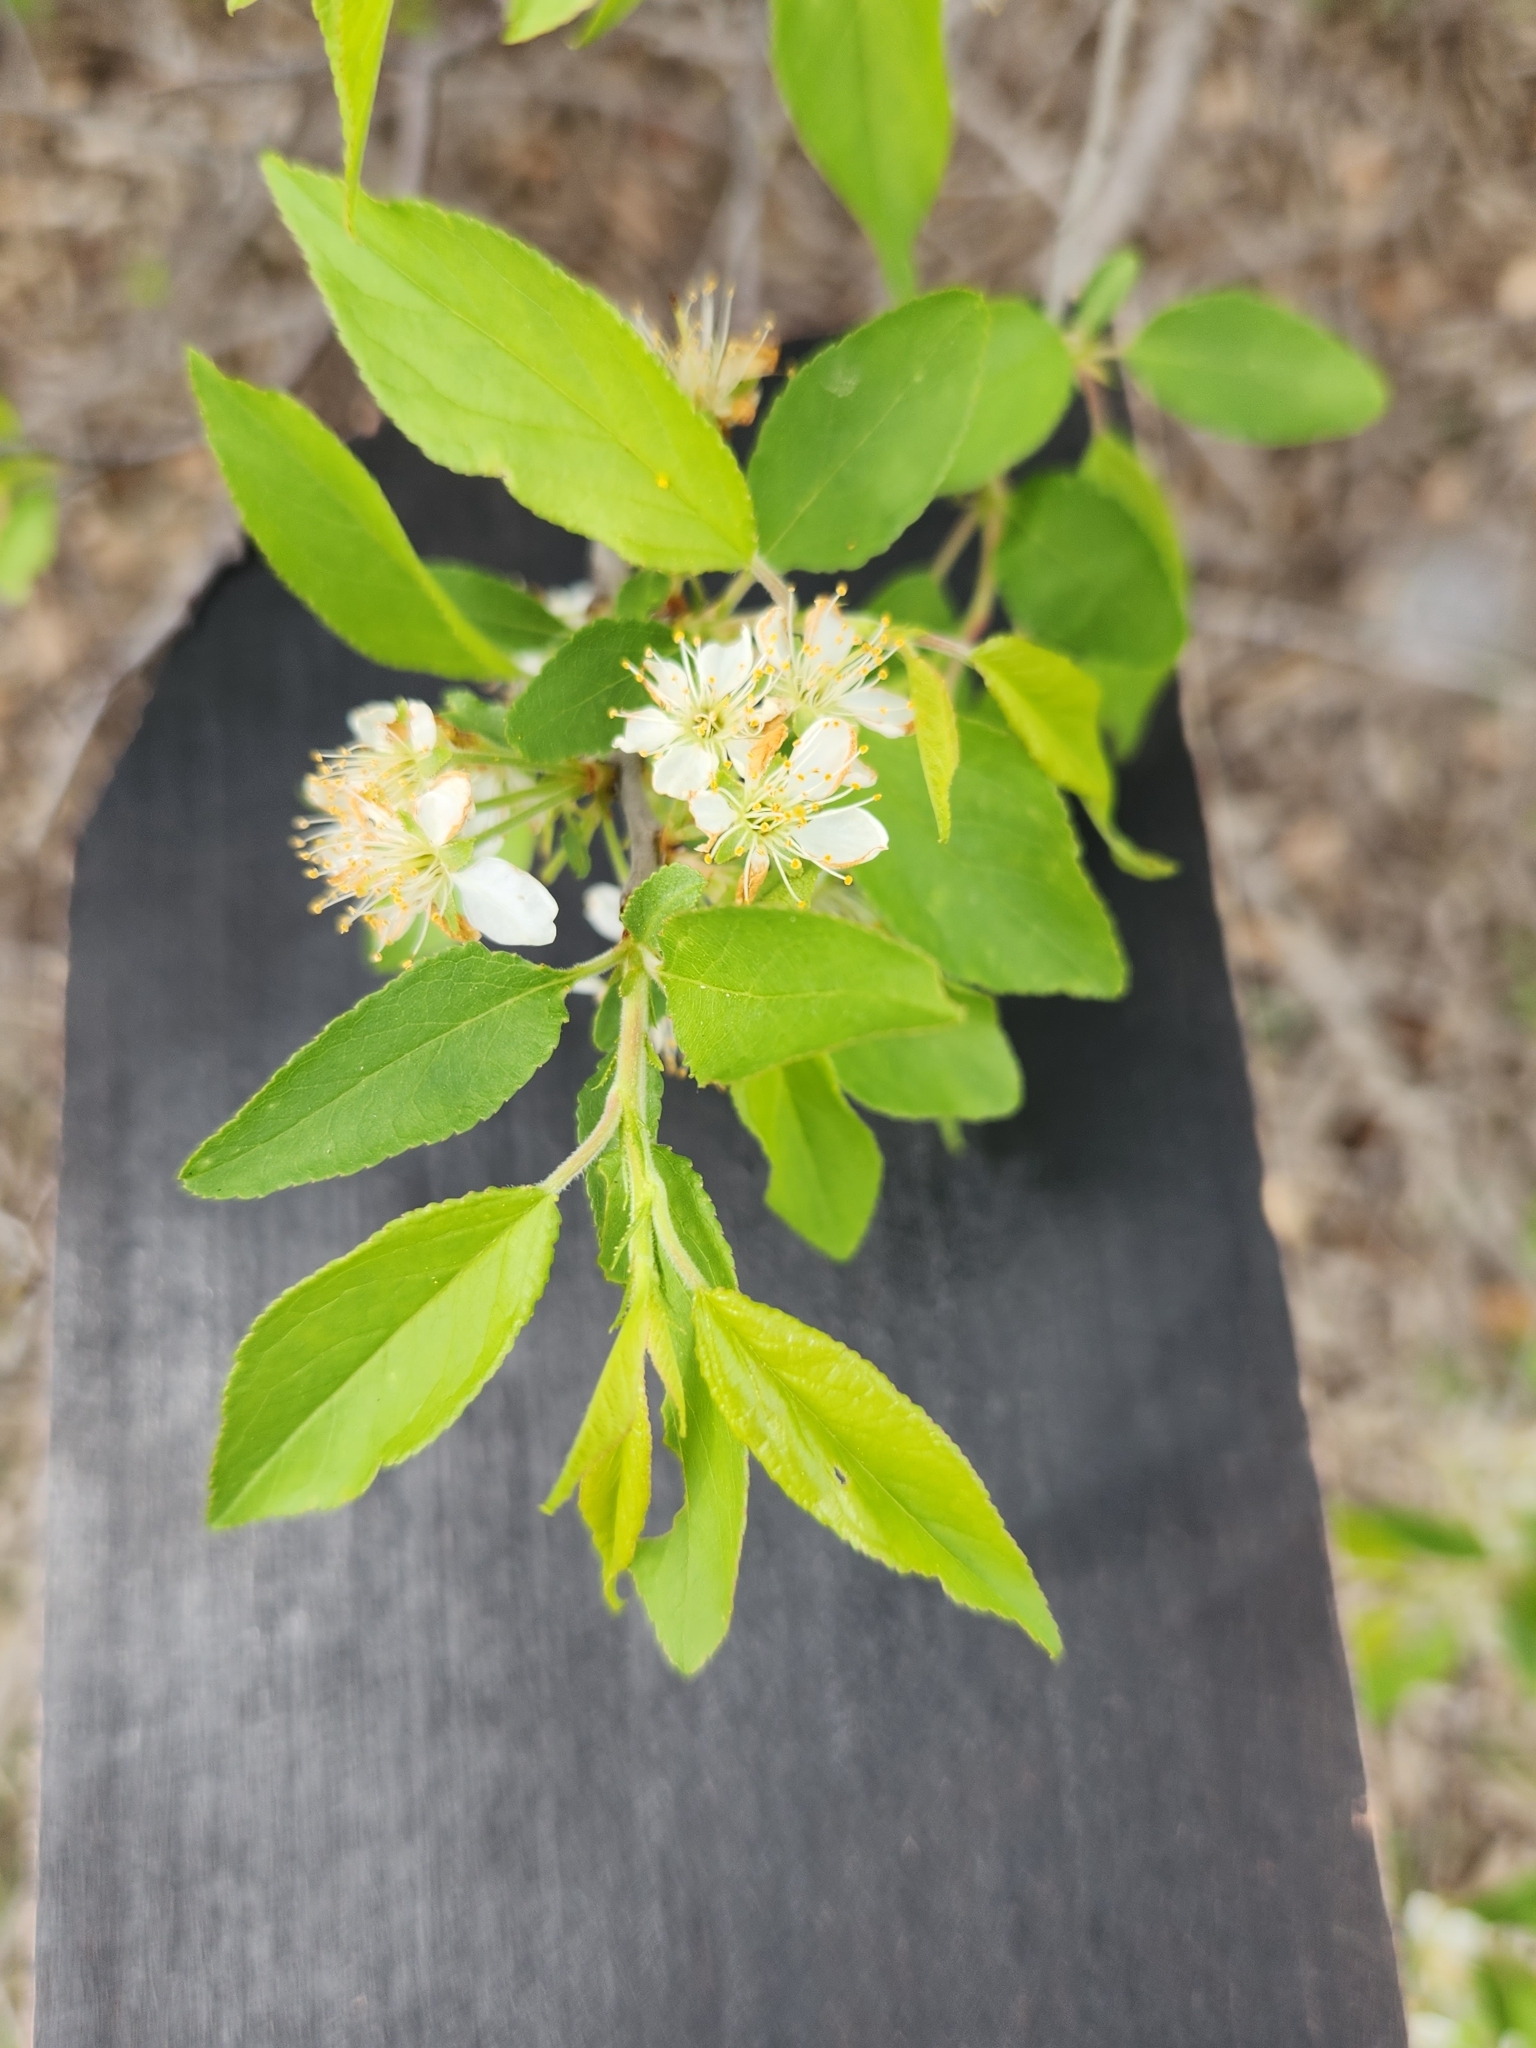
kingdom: Plantae
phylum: Tracheophyta
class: Magnoliopsida
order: Rosales
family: Rosaceae
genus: Prunus
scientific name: Prunus murrayana
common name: Murray plum
